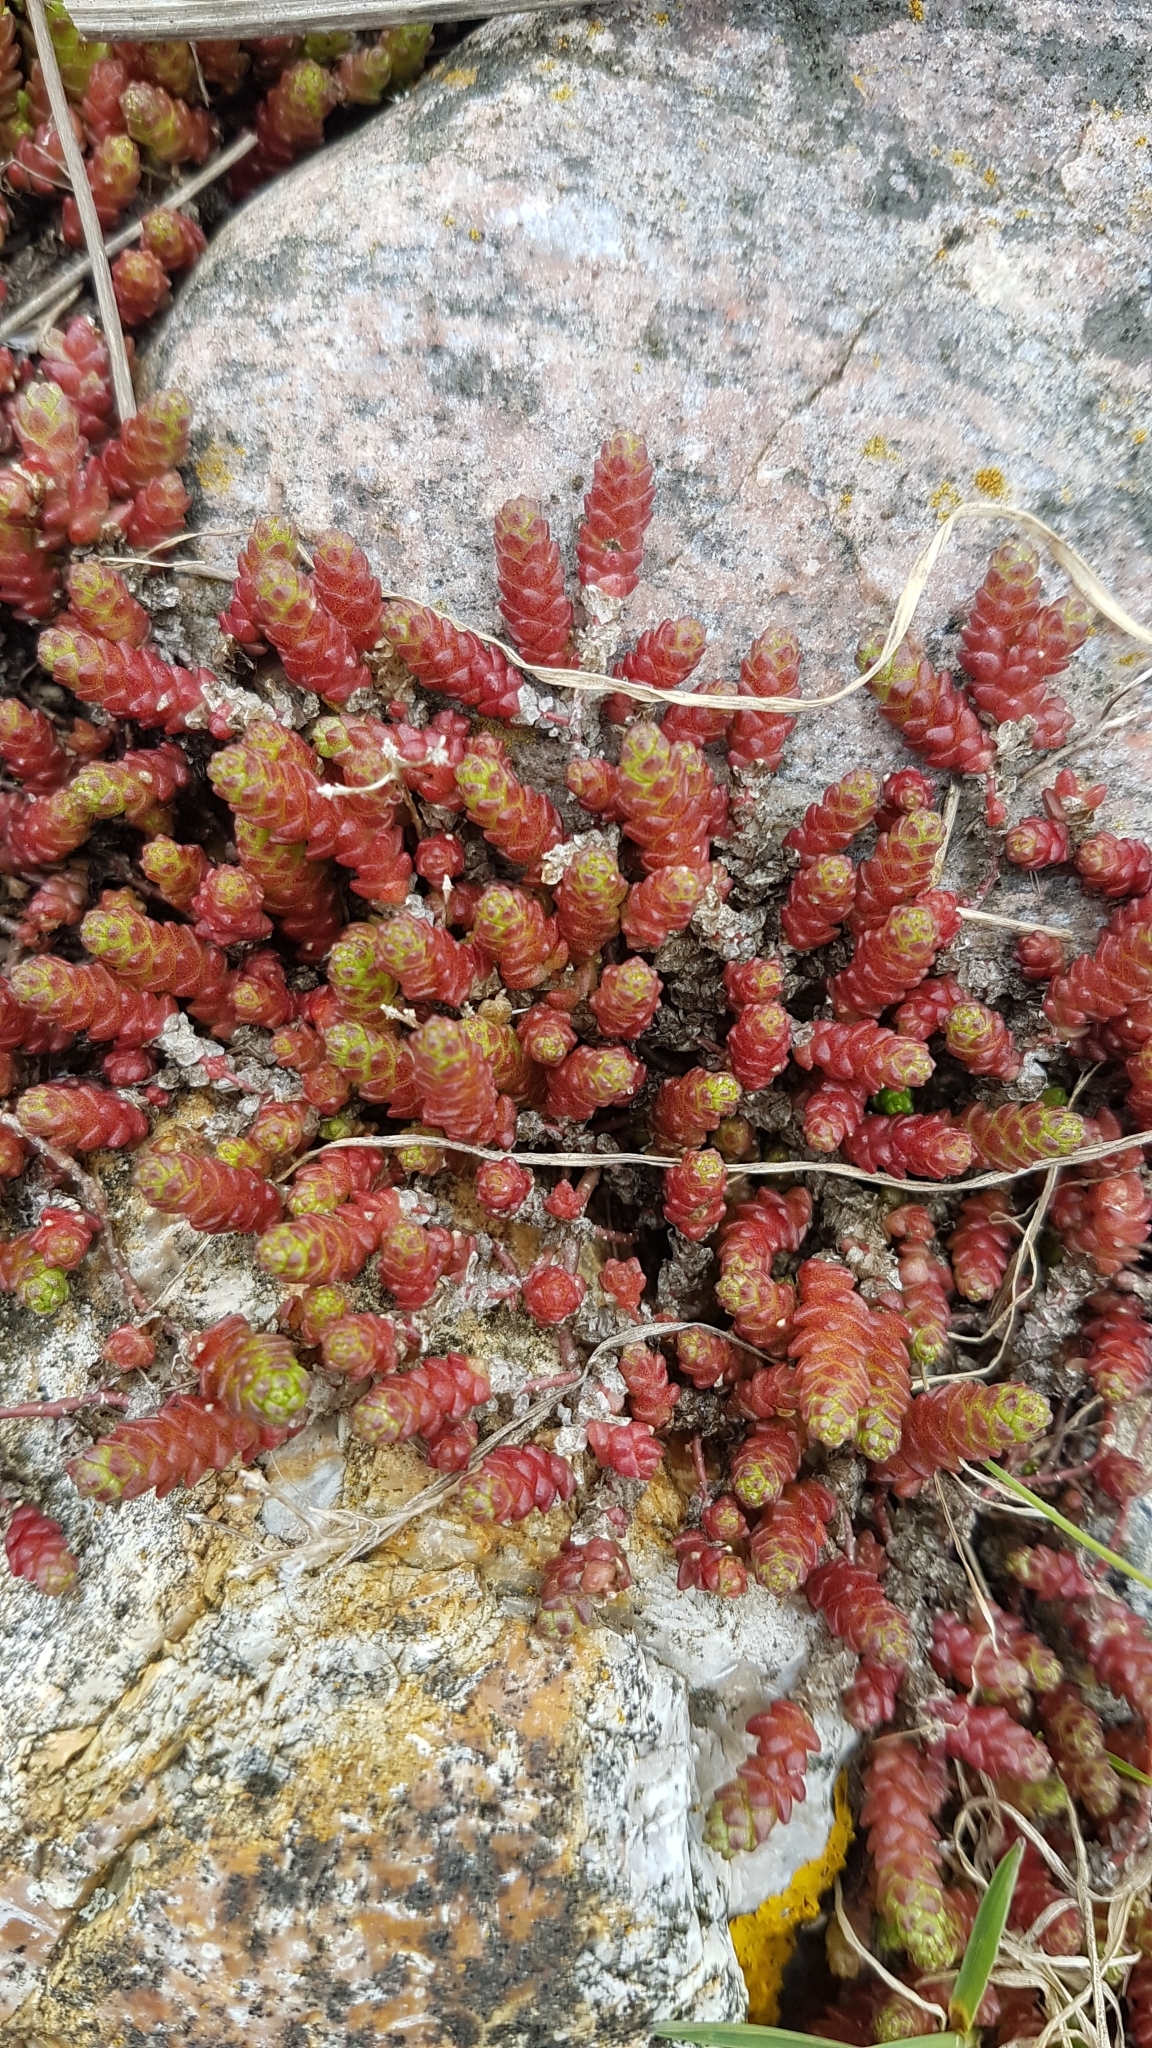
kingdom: Plantae
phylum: Tracheophyta
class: Magnoliopsida
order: Saxifragales
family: Crassulaceae
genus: Sedum
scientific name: Sedum acre
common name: Biting stonecrop
